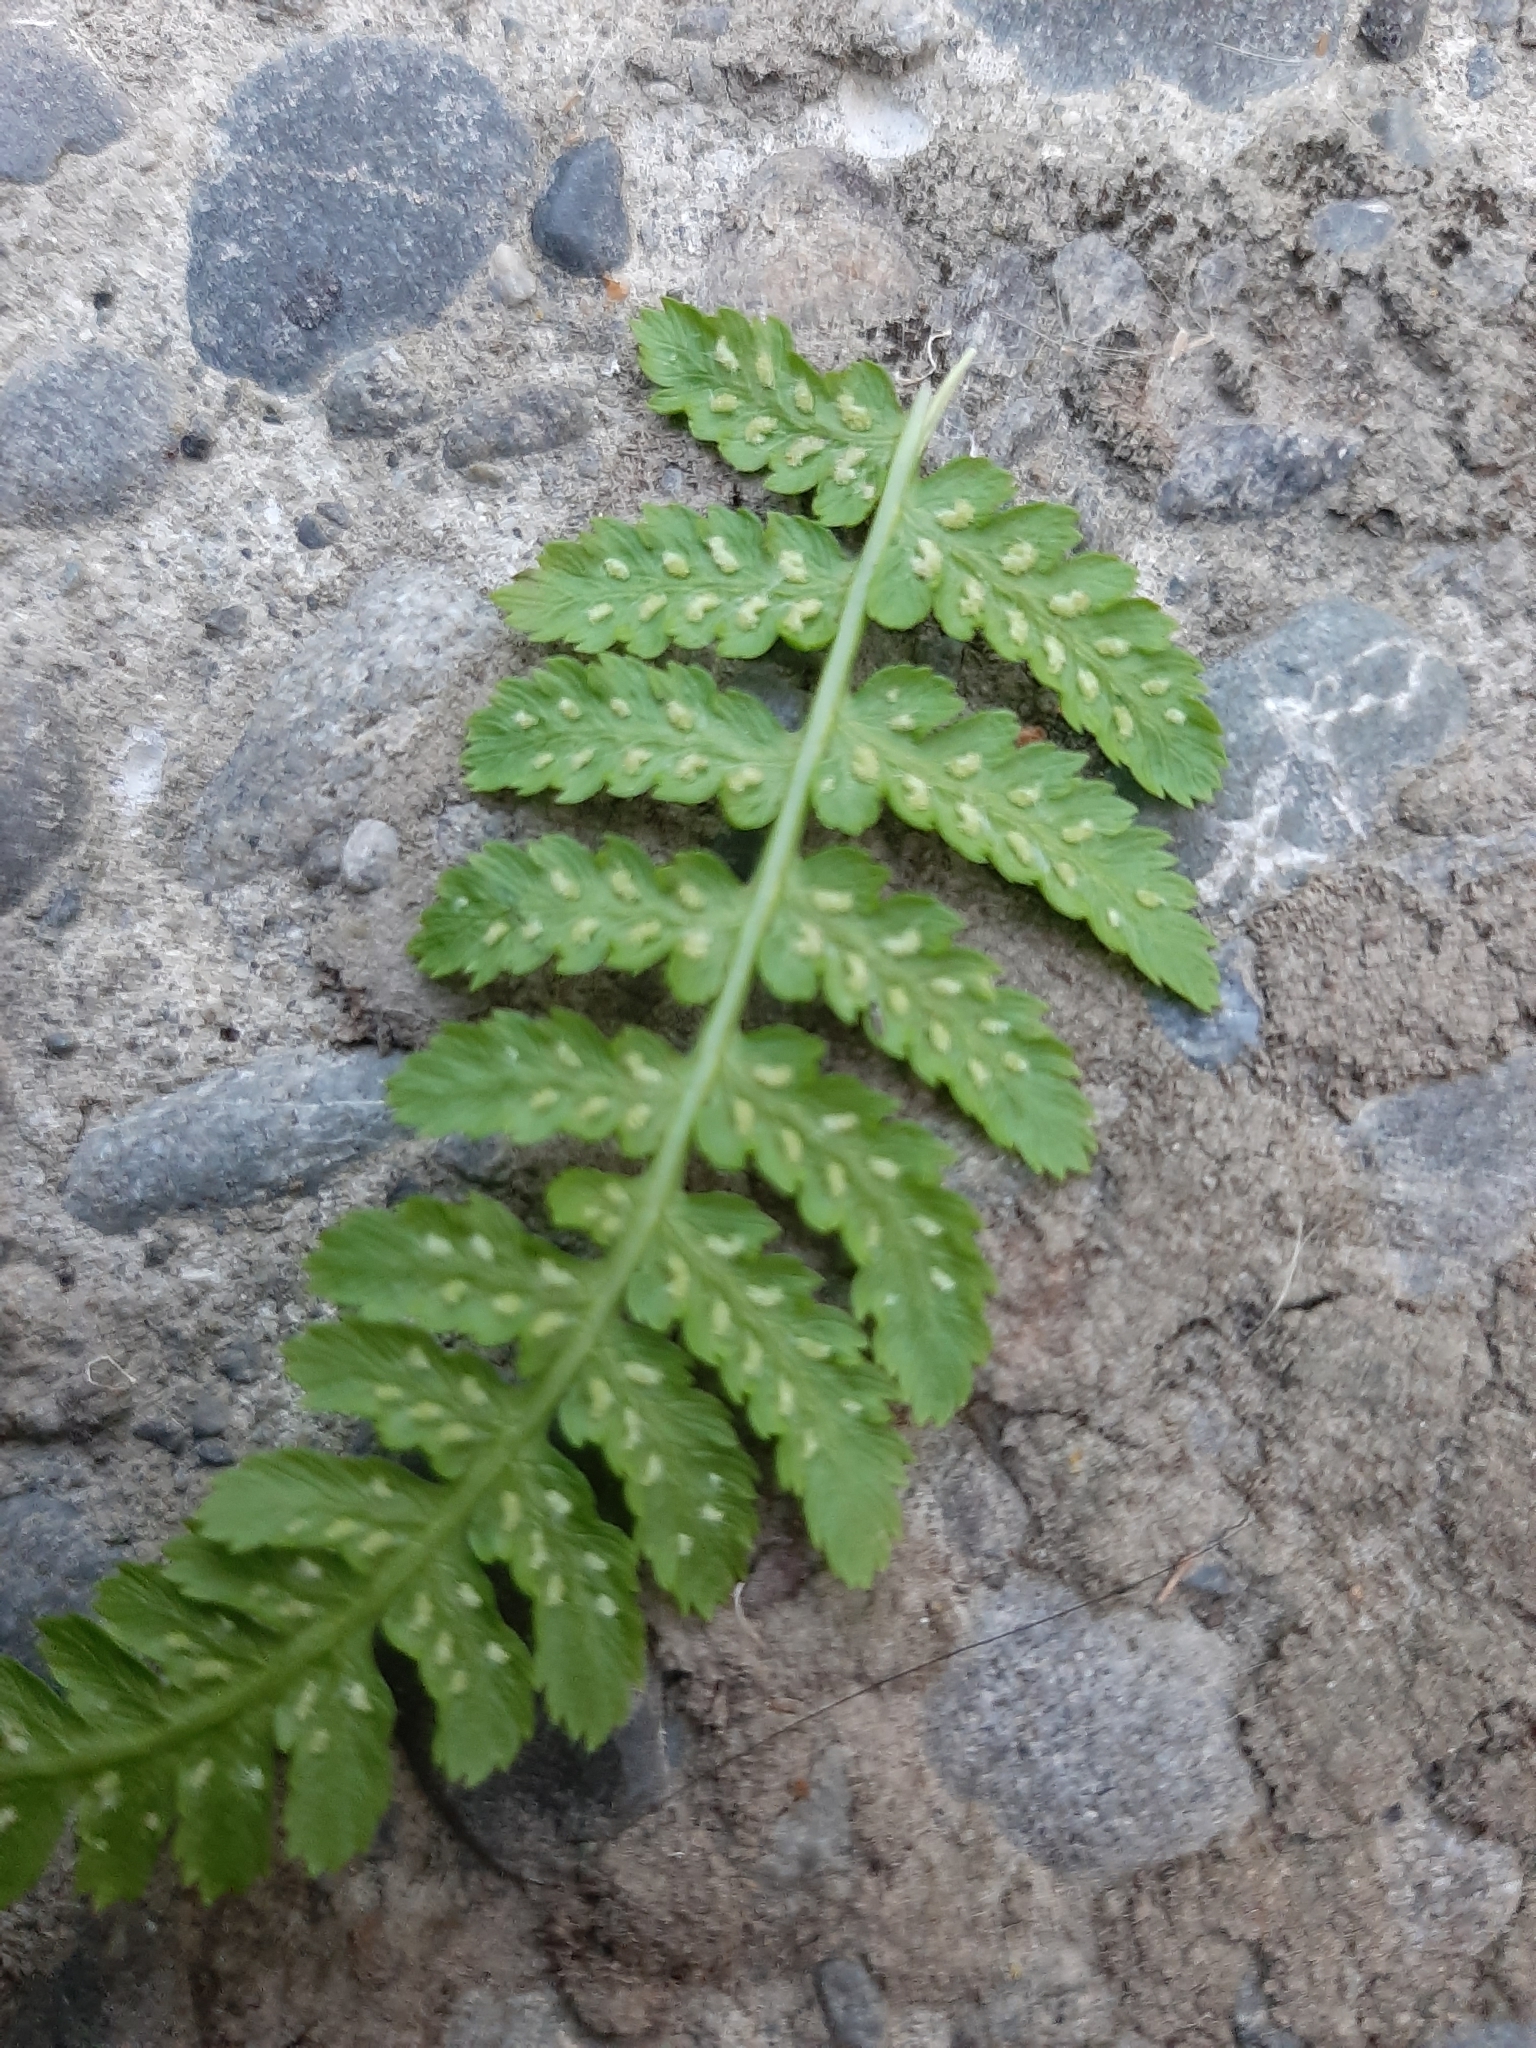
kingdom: Plantae
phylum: Tracheophyta
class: Polypodiopsida
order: Polypodiales
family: Athyriaceae
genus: Athyrium
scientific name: Athyrium filix-femina
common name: Lady fern
